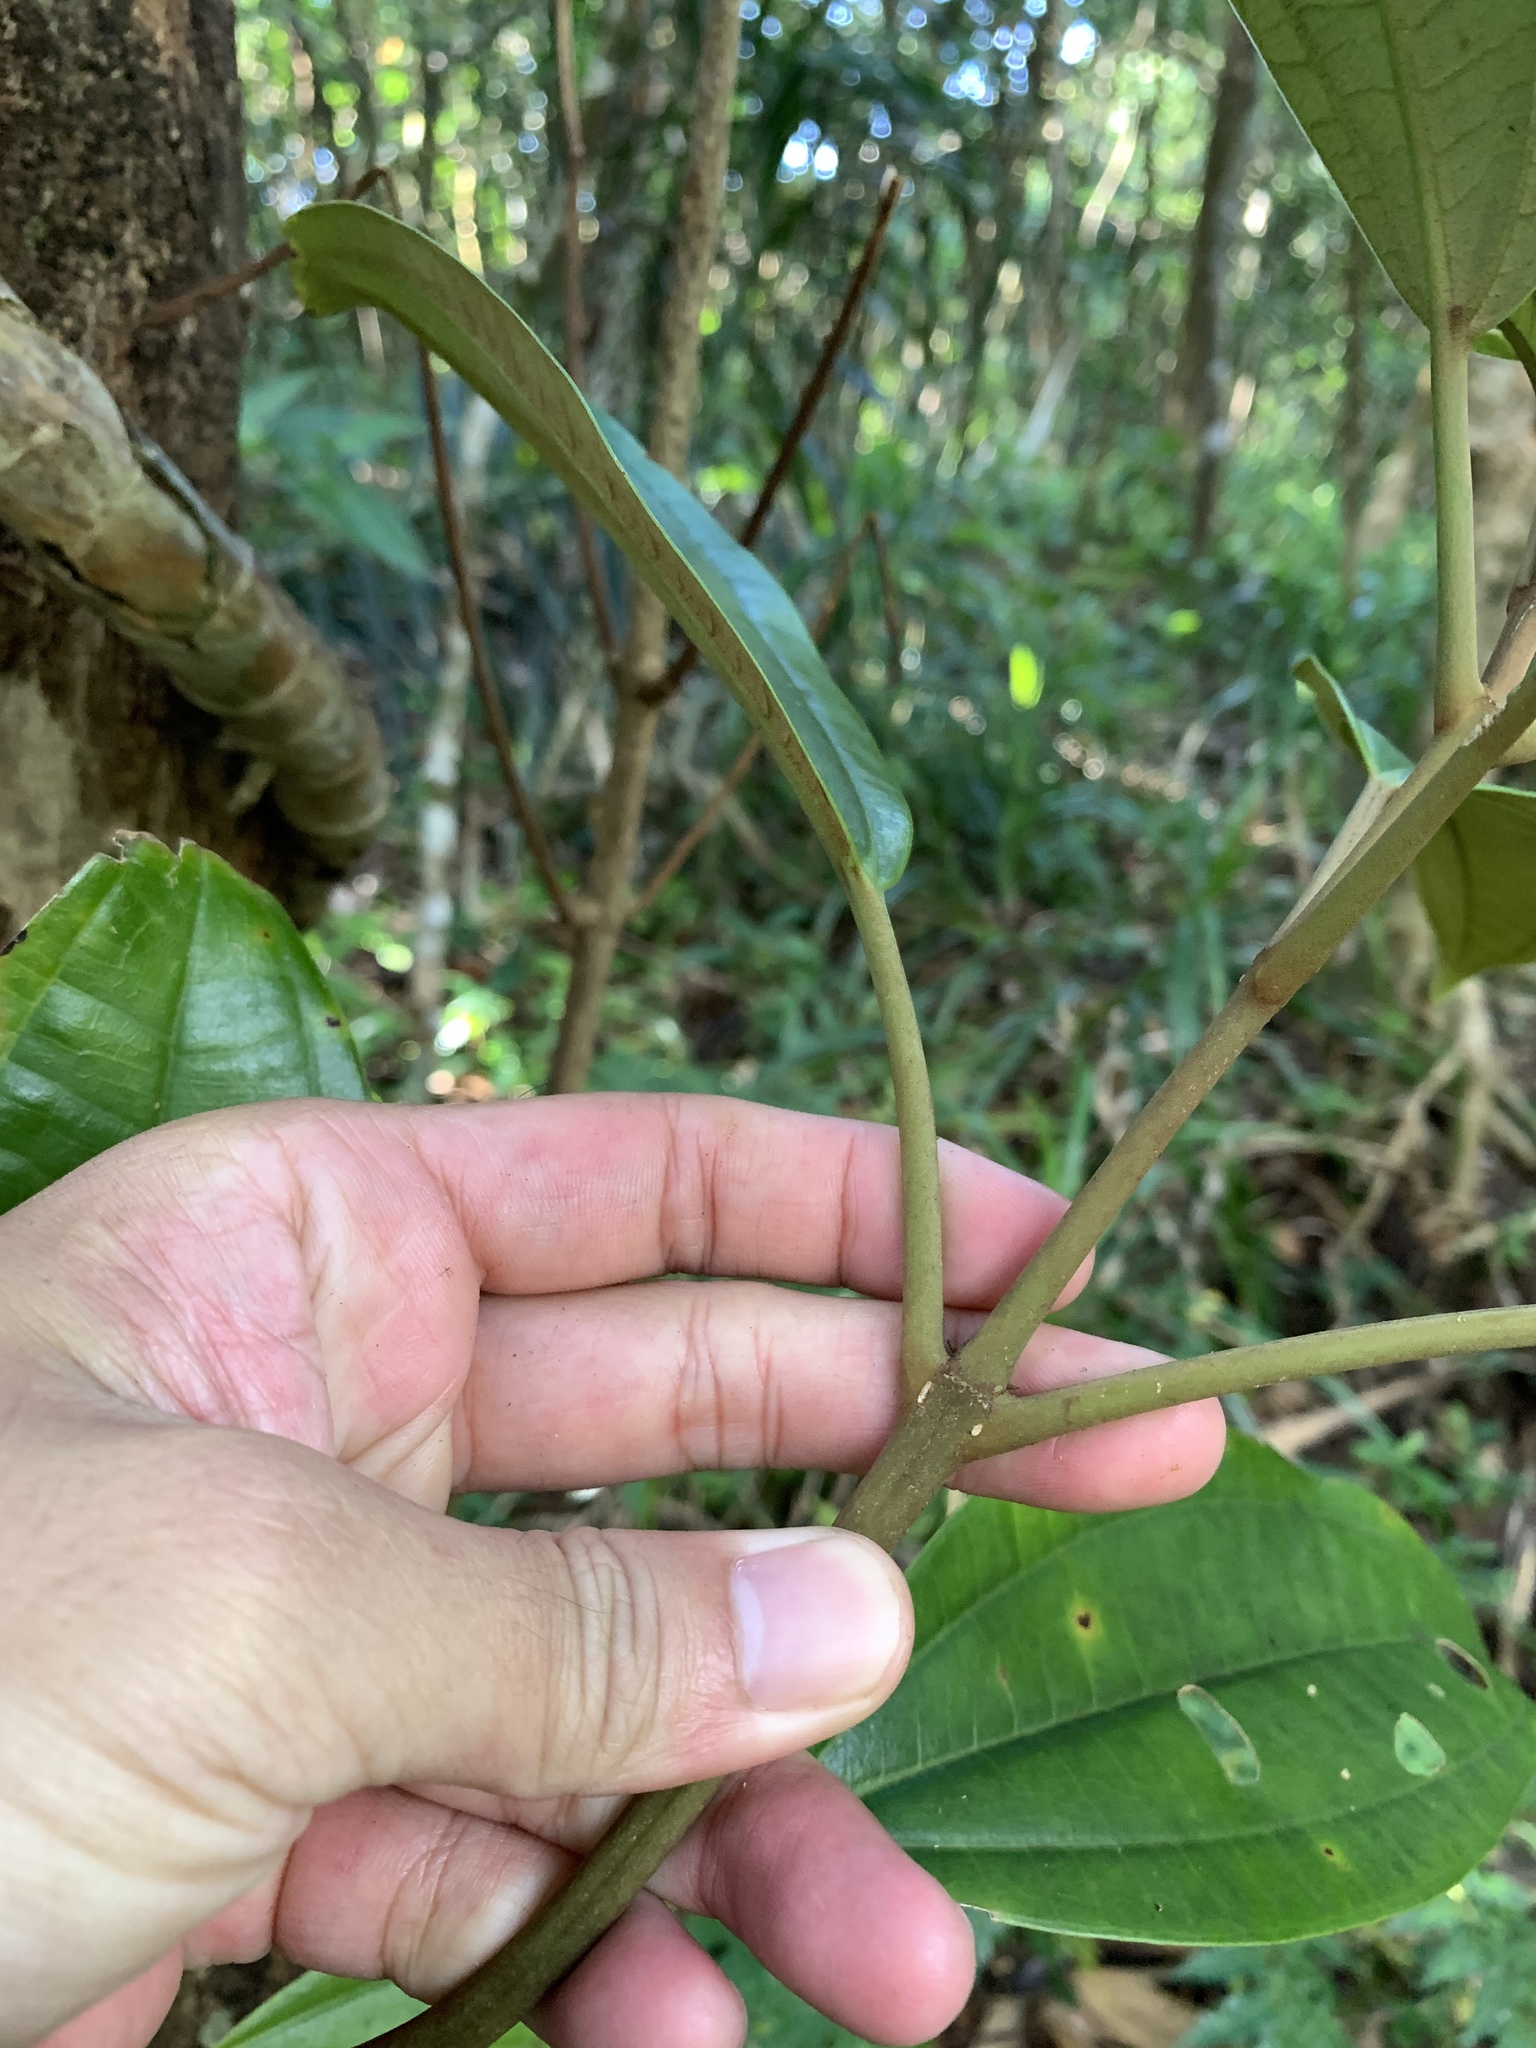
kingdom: Plantae
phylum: Tracheophyta
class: Magnoliopsida
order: Myrtales
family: Melastomataceae
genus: Astronia
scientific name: Astronia ferruginea
